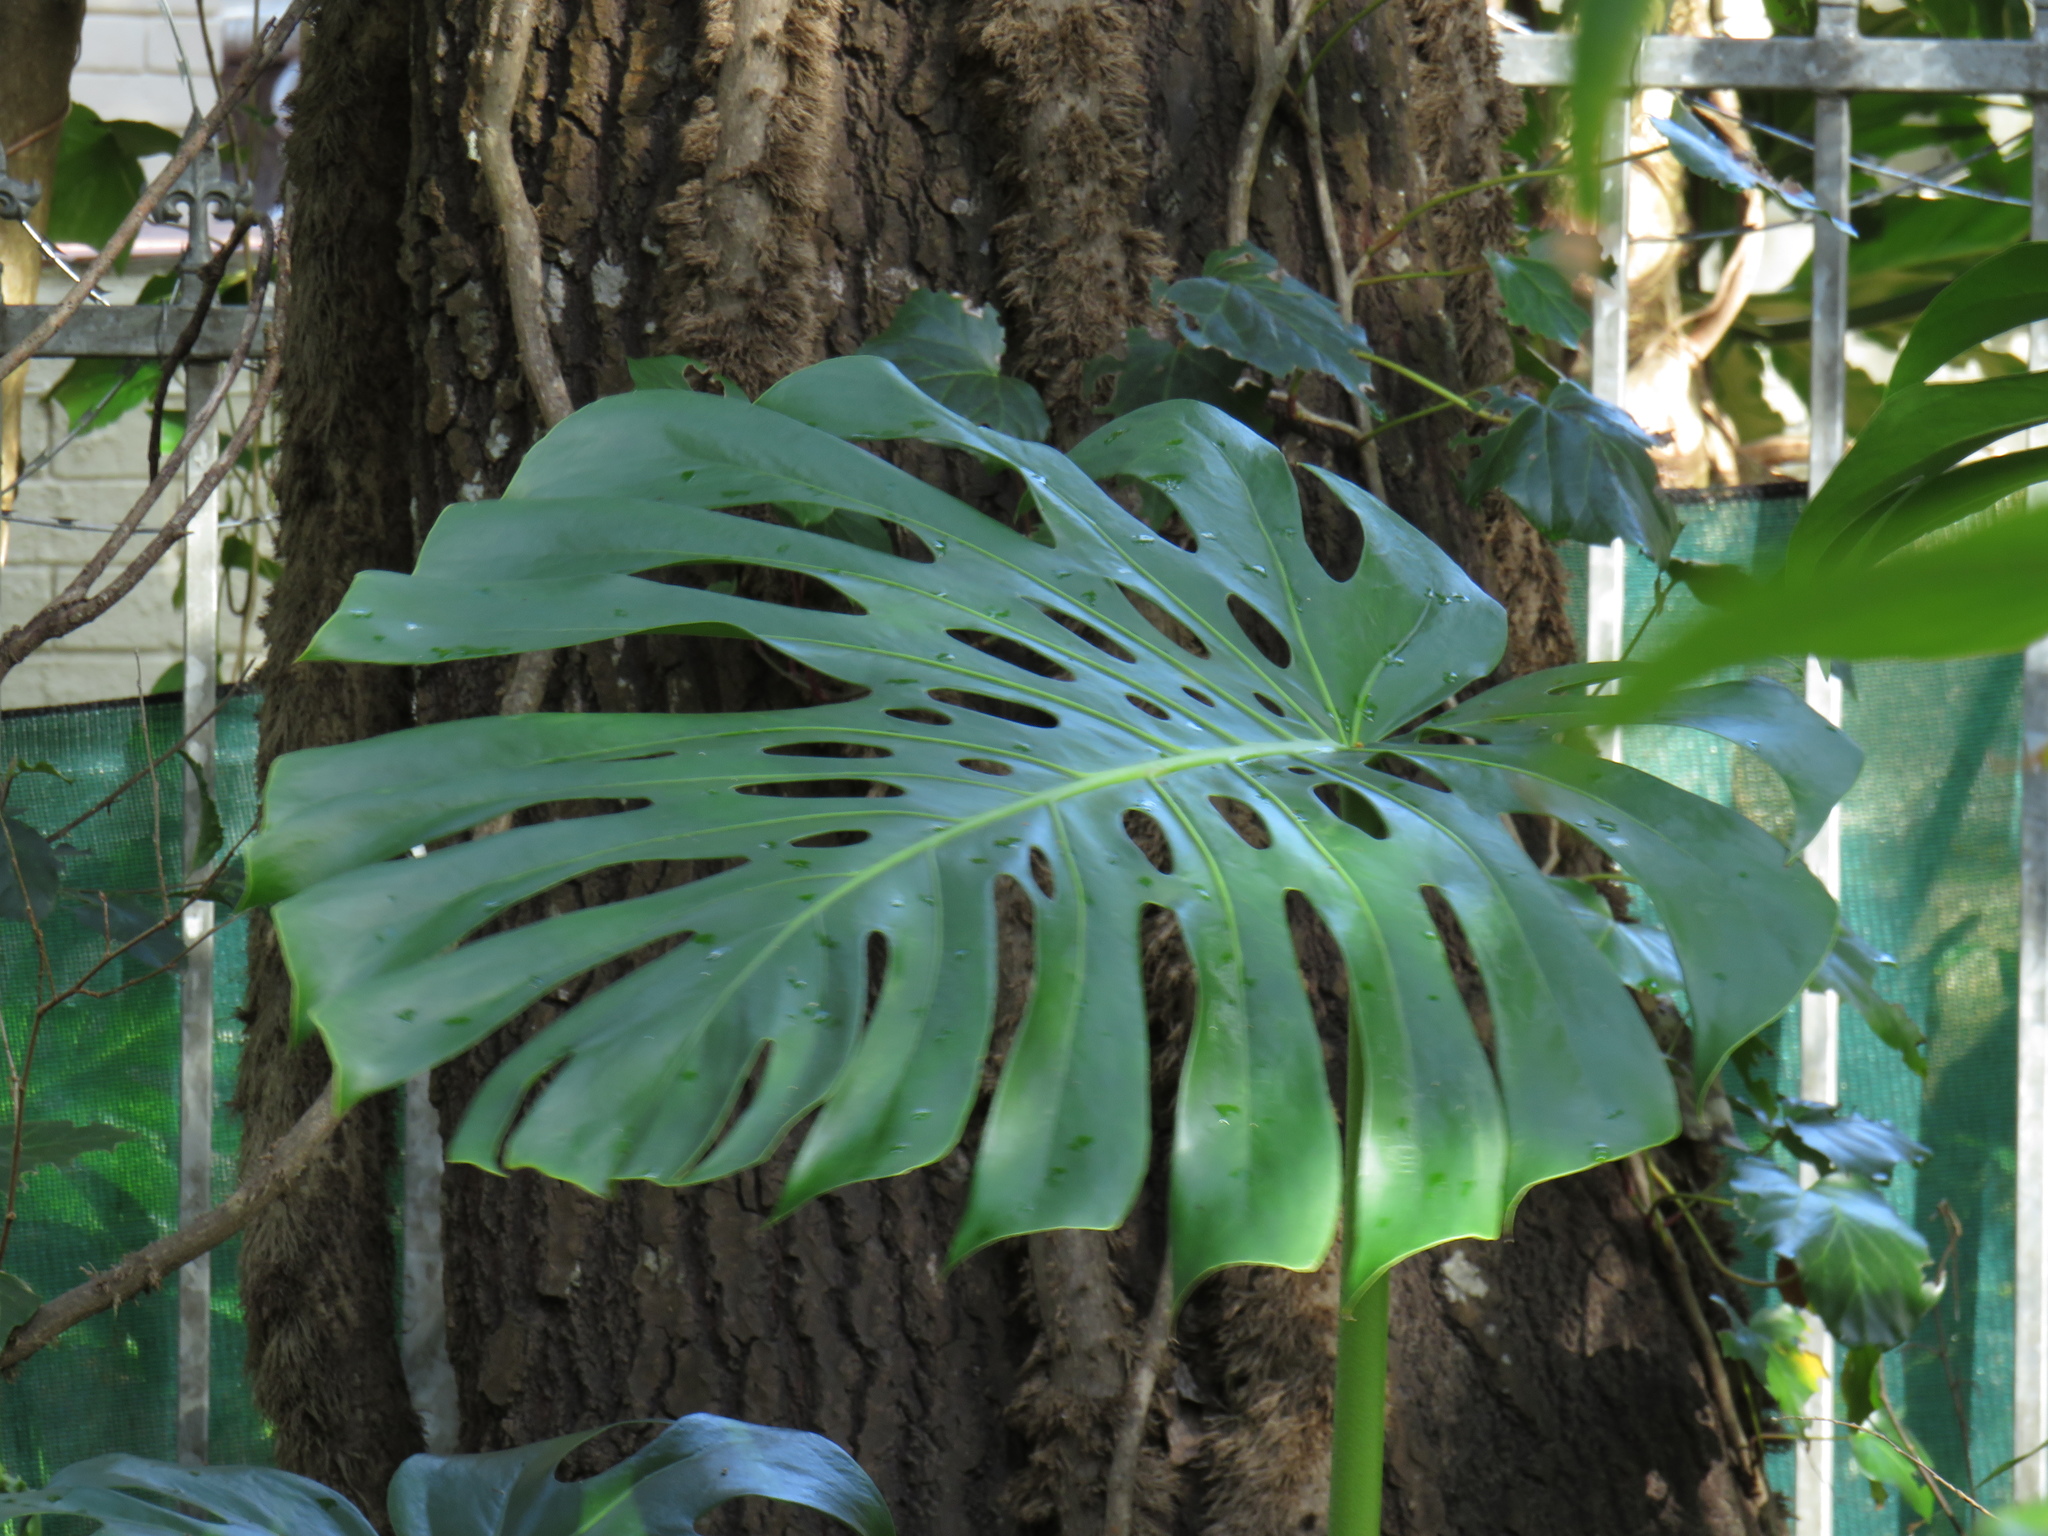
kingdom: Plantae
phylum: Tracheophyta
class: Liliopsida
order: Alismatales
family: Araceae
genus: Monstera
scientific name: Monstera deliciosa
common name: Cut-leaf-philodendron
